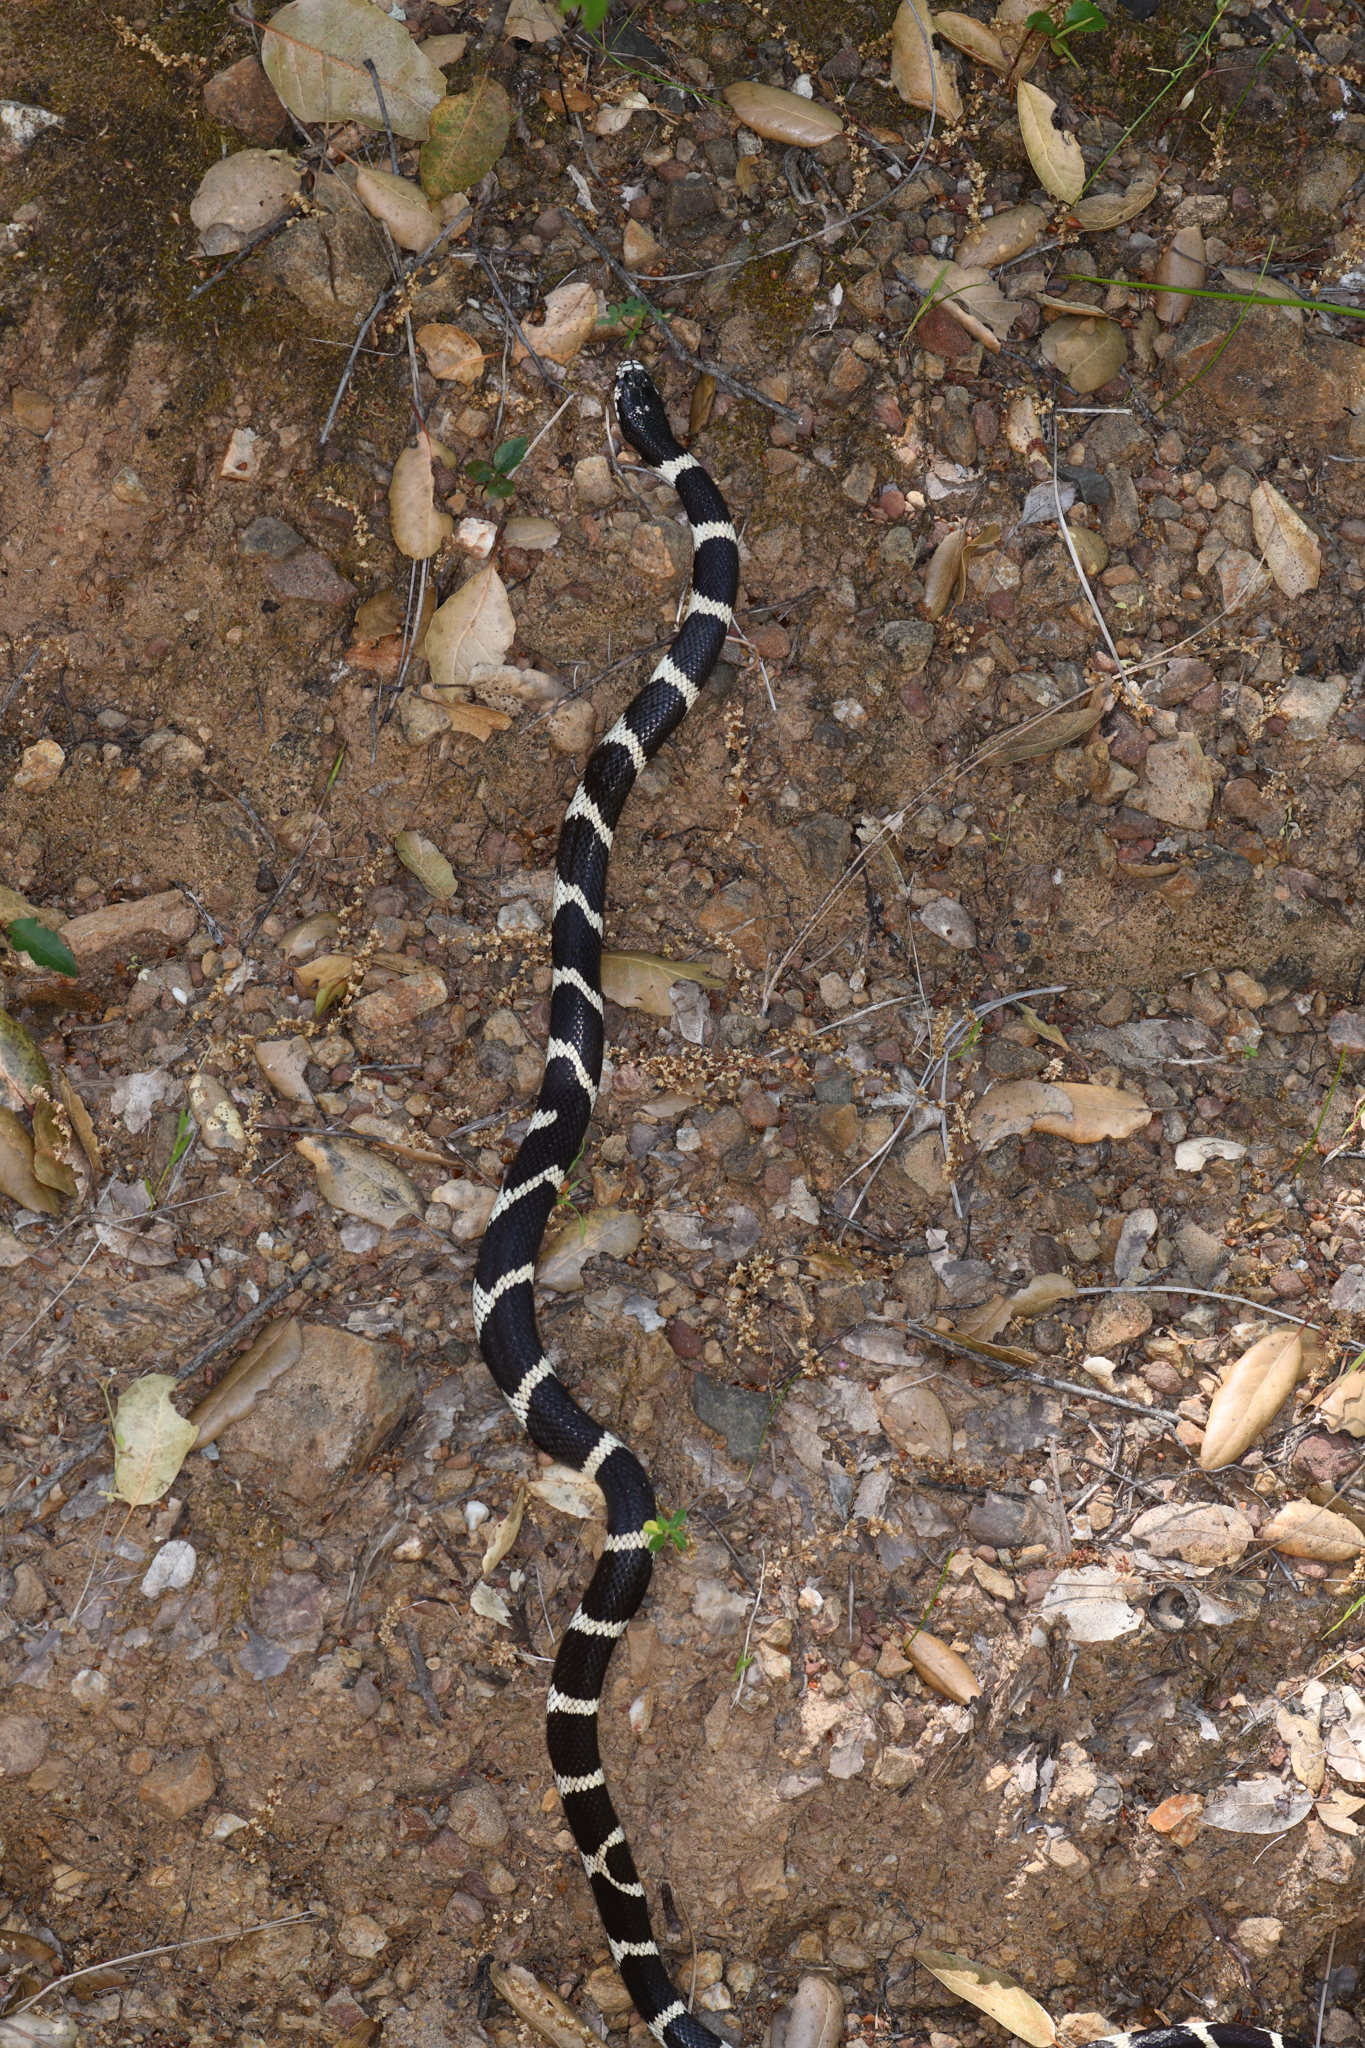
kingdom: Animalia
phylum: Chordata
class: Squamata
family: Colubridae
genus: Lampropeltis
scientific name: Lampropeltis californiae
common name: California kingsnake
